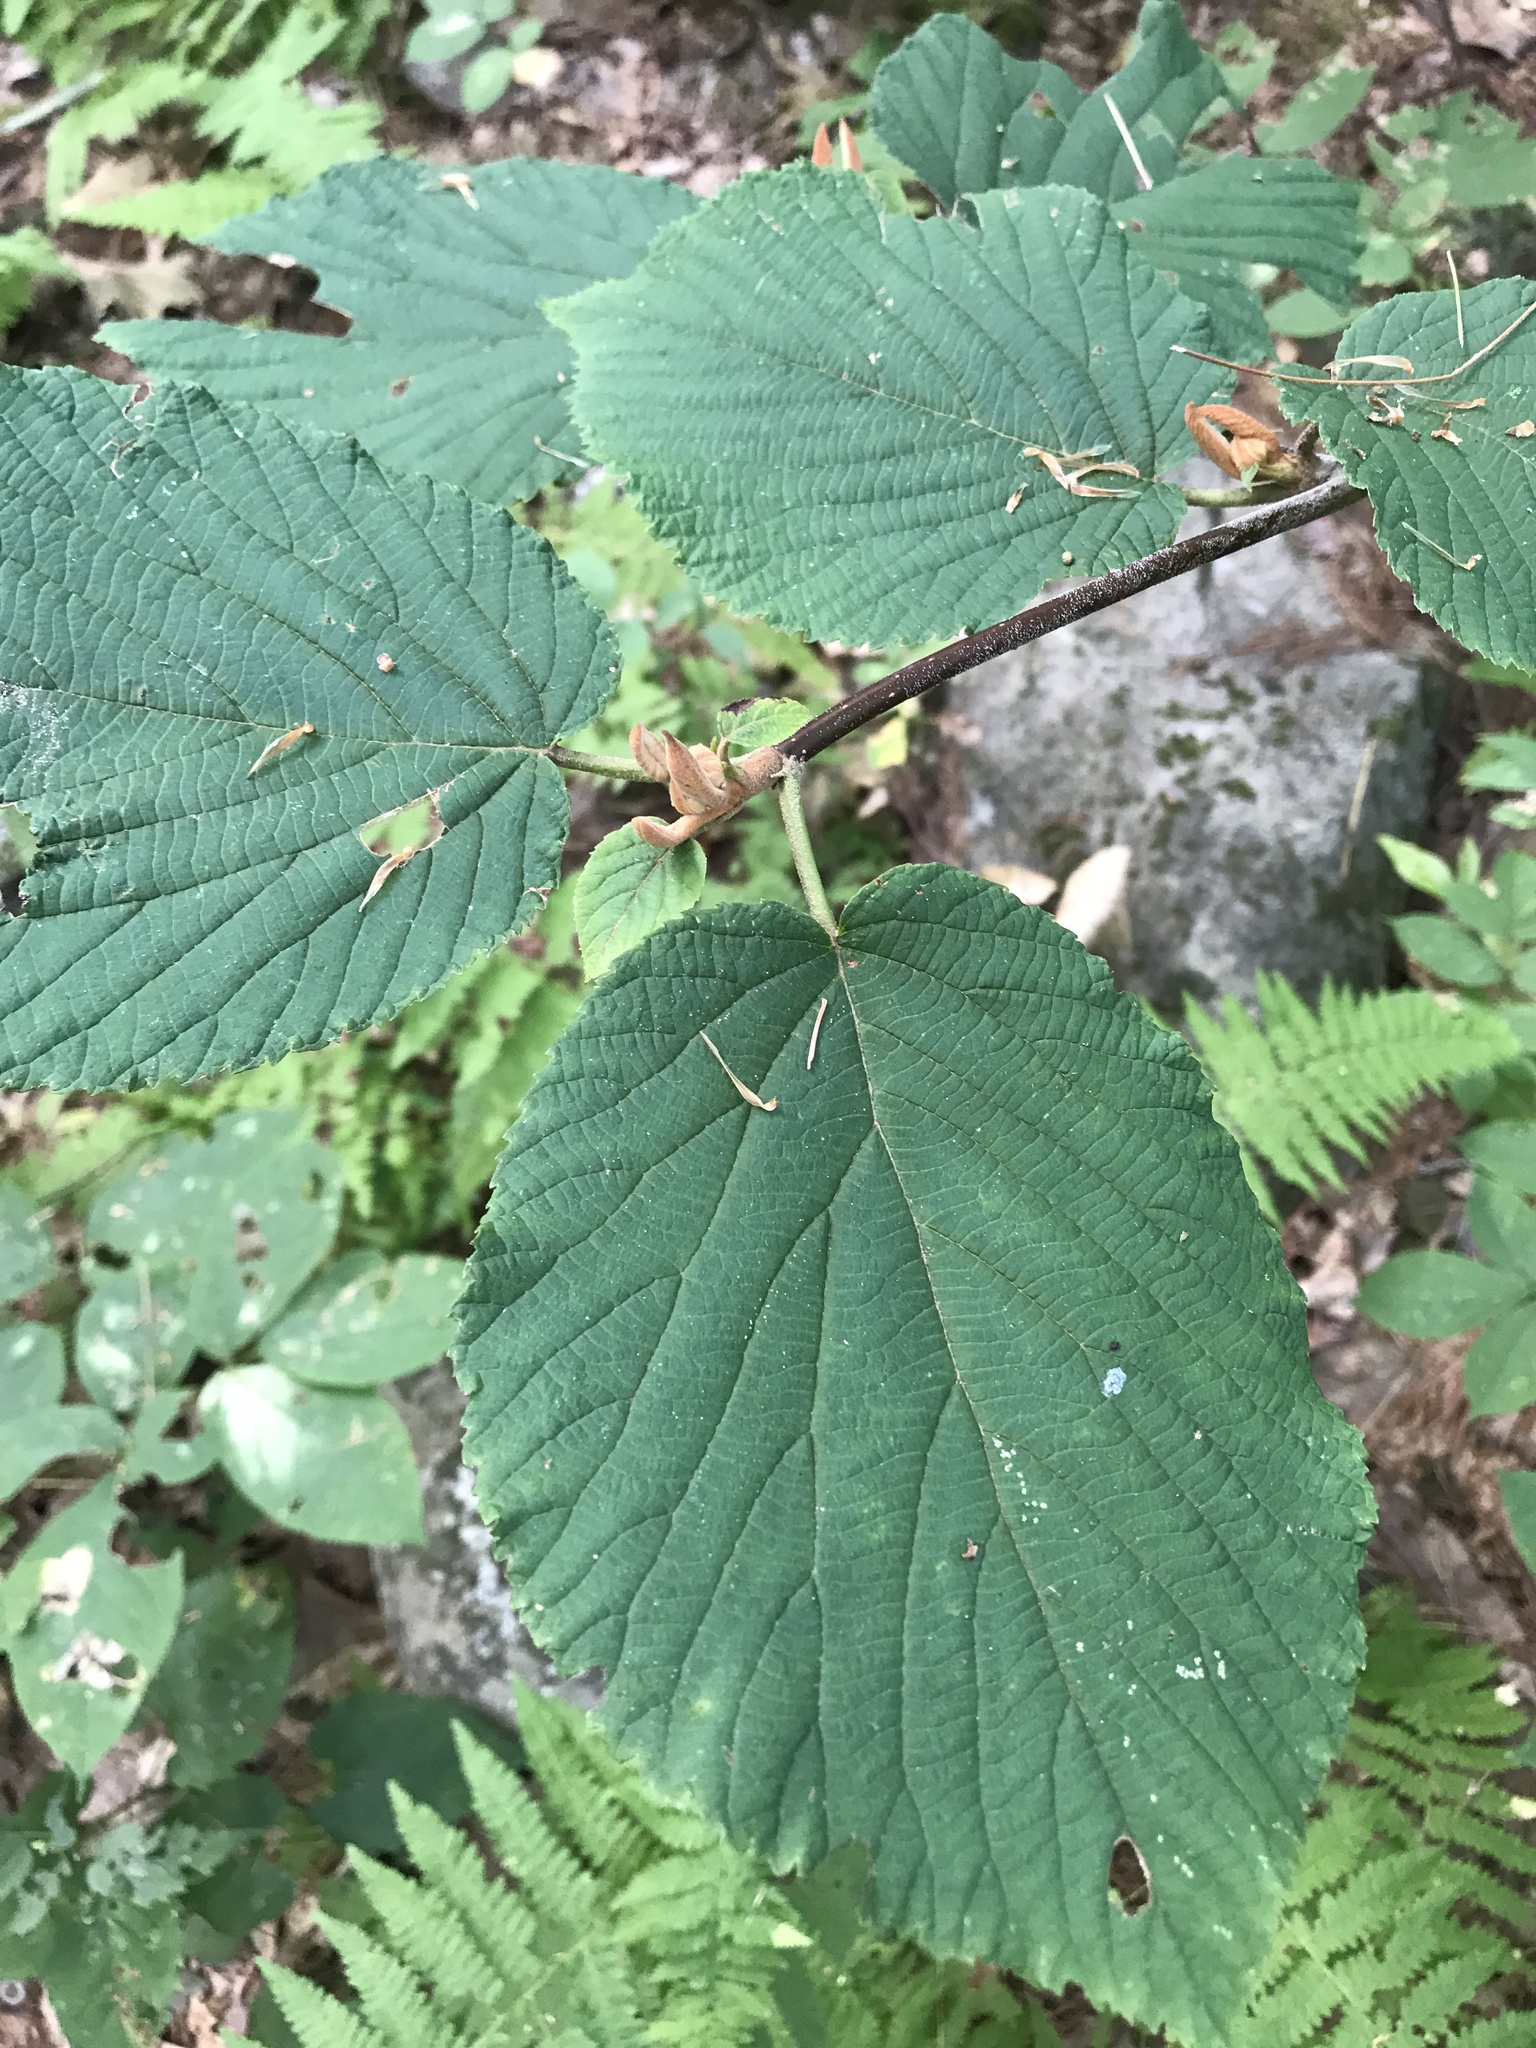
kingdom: Plantae
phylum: Tracheophyta
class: Magnoliopsida
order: Dipsacales
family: Viburnaceae
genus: Viburnum
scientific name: Viburnum lantanoides
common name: Hobblebush
